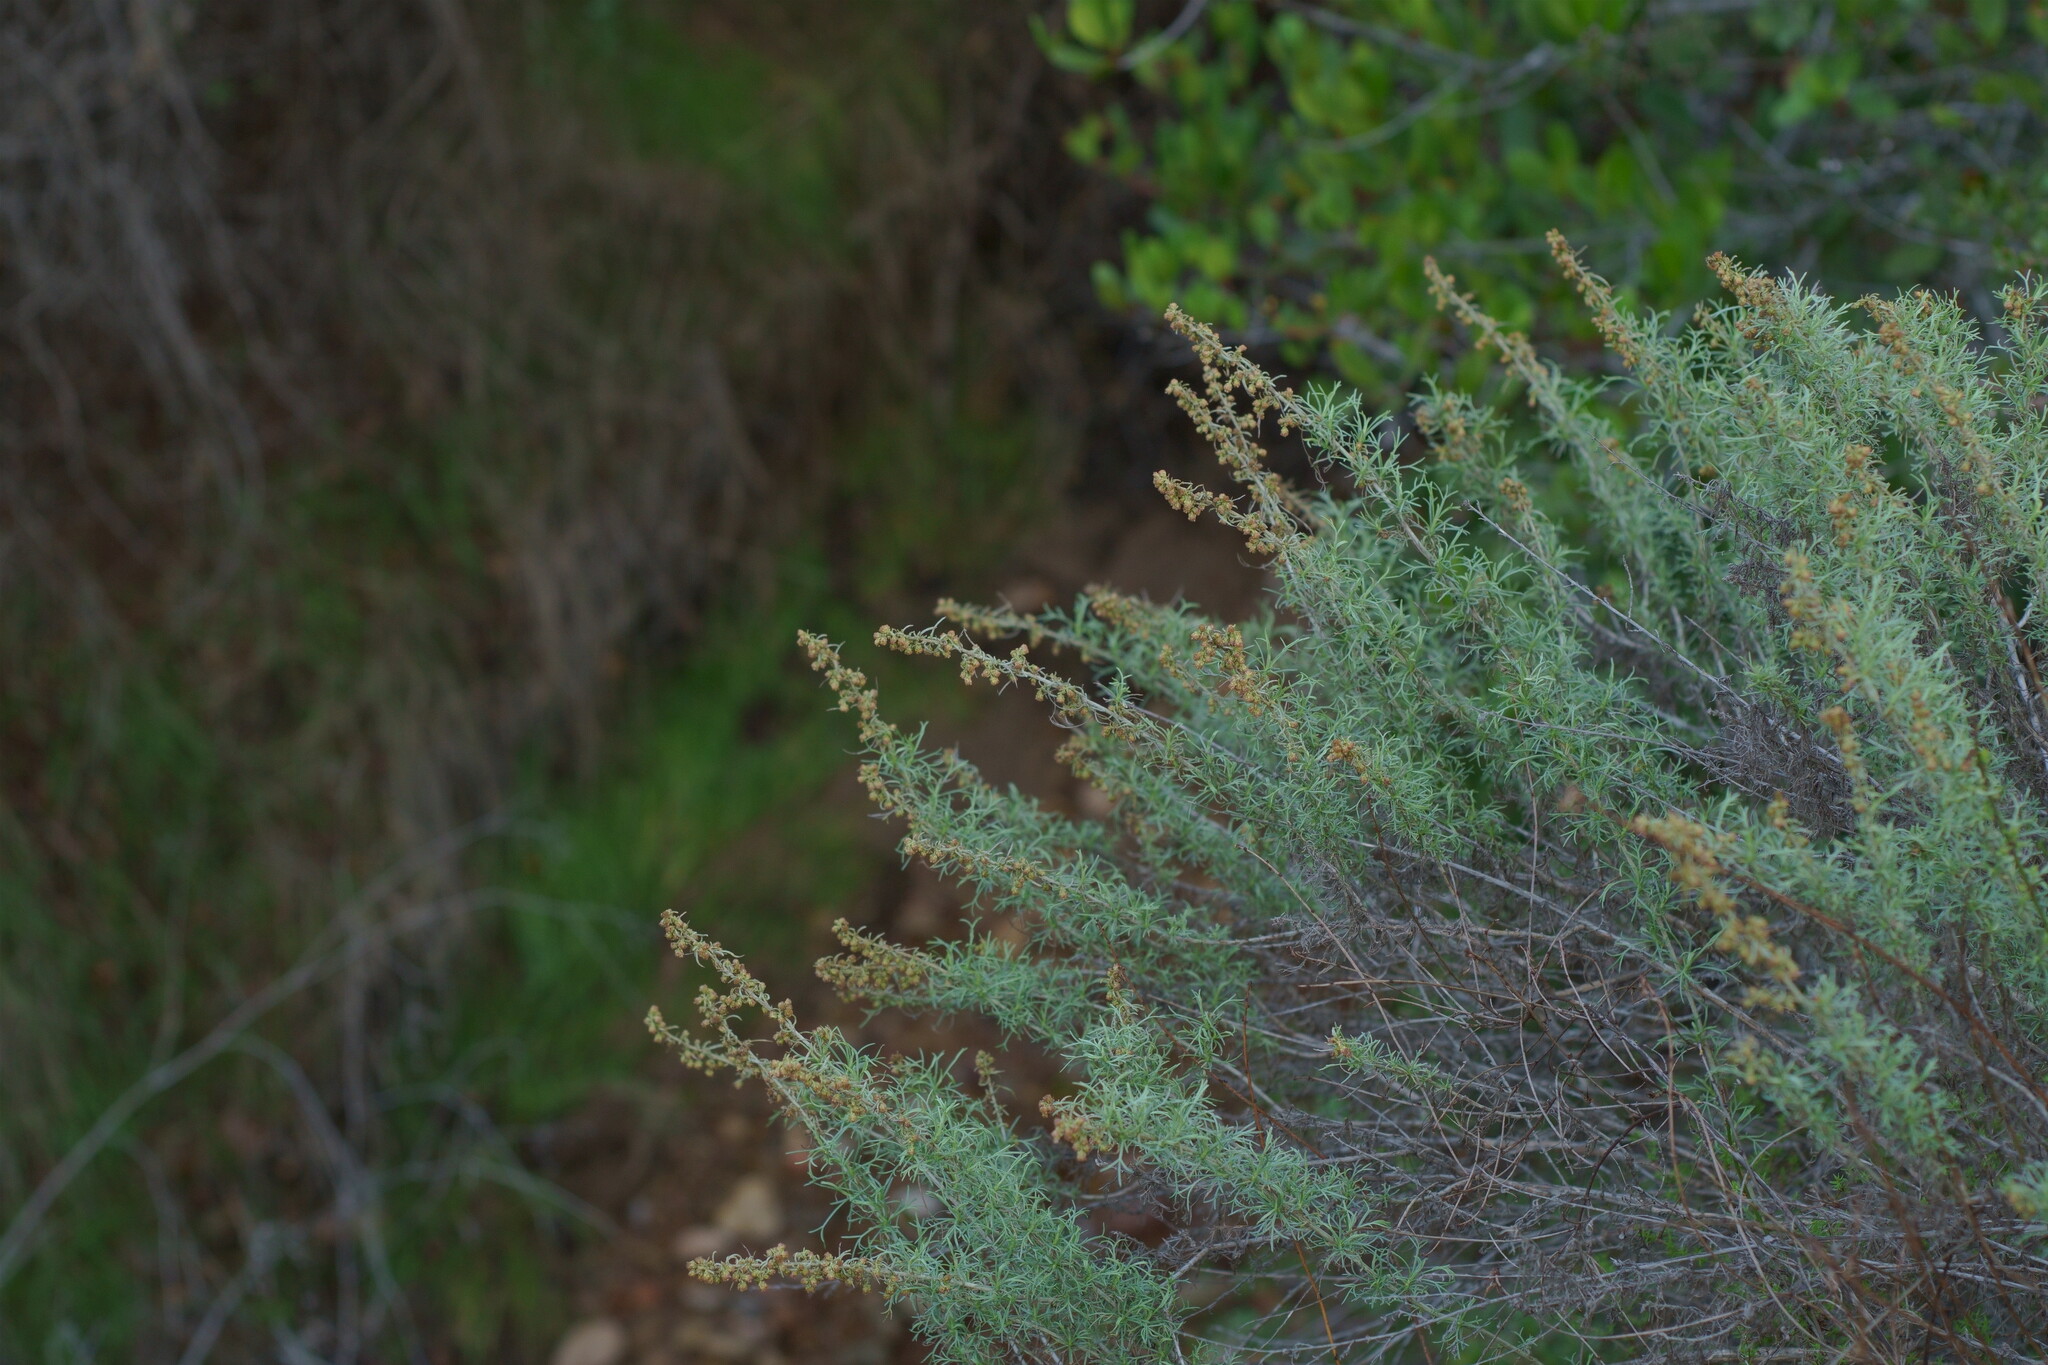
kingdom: Plantae
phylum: Tracheophyta
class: Magnoliopsida
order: Asterales
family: Asteraceae
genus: Artemisia
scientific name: Artemisia californica
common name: California sagebrush
